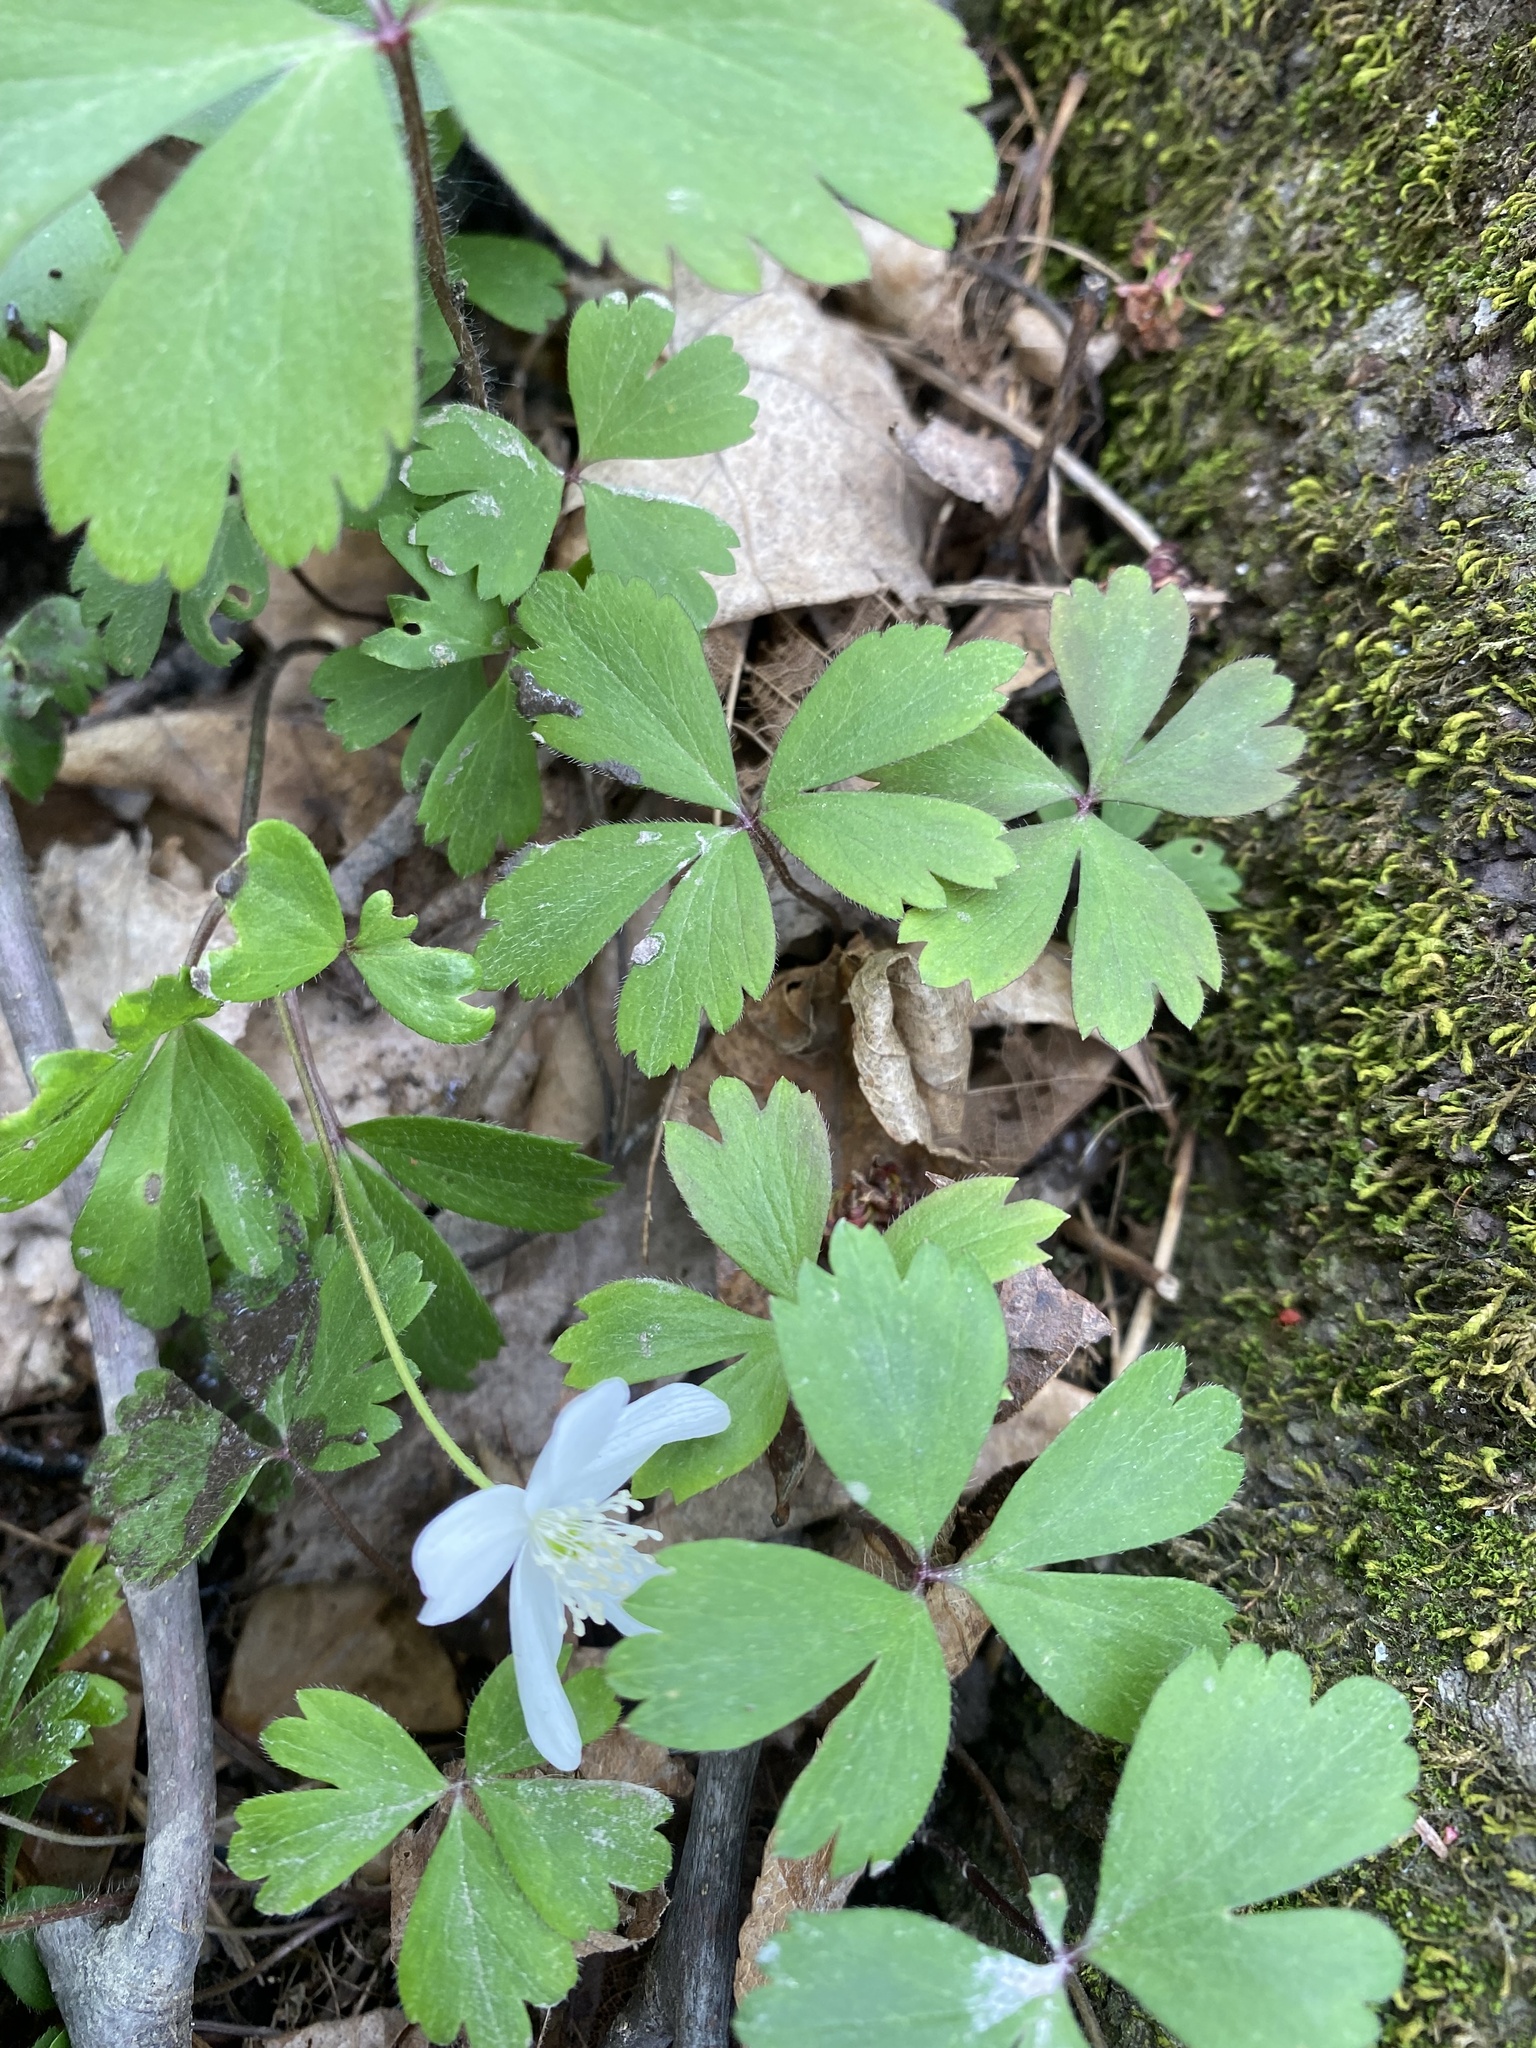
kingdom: Plantae
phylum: Tracheophyta
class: Magnoliopsida
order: Ranunculales
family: Ranunculaceae
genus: Anemone
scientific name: Anemone quinquefolia
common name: Wood anemone
